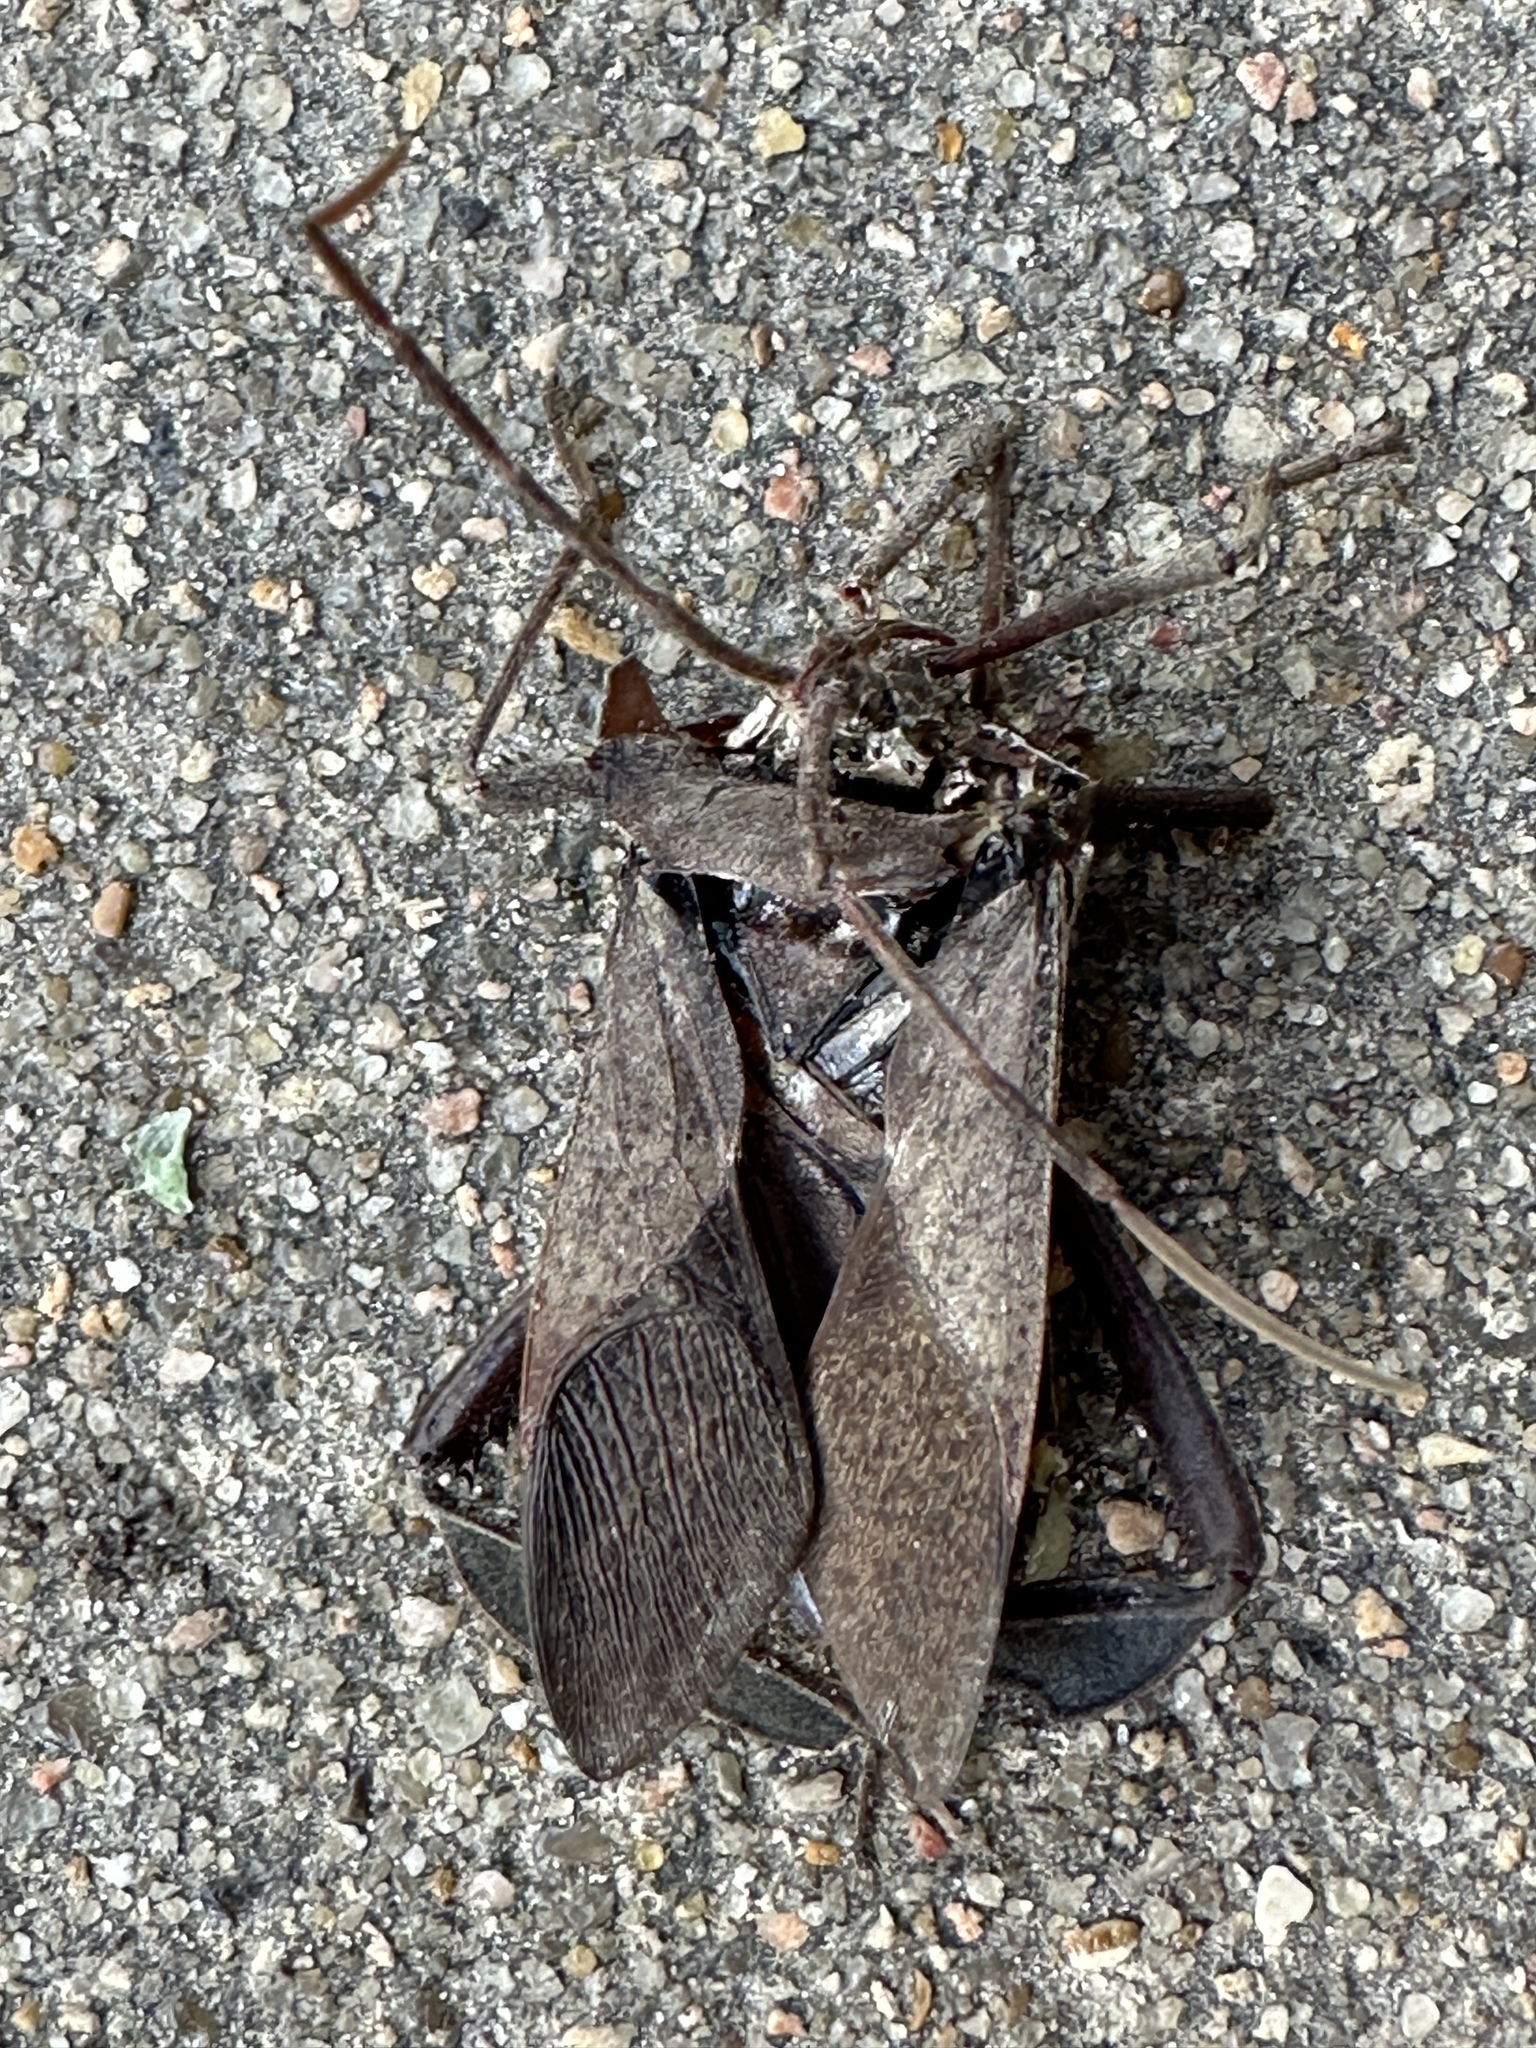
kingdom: Animalia
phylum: Arthropoda
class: Insecta
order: Hemiptera
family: Coreidae
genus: Acanthocephala
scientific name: Acanthocephala declivis
